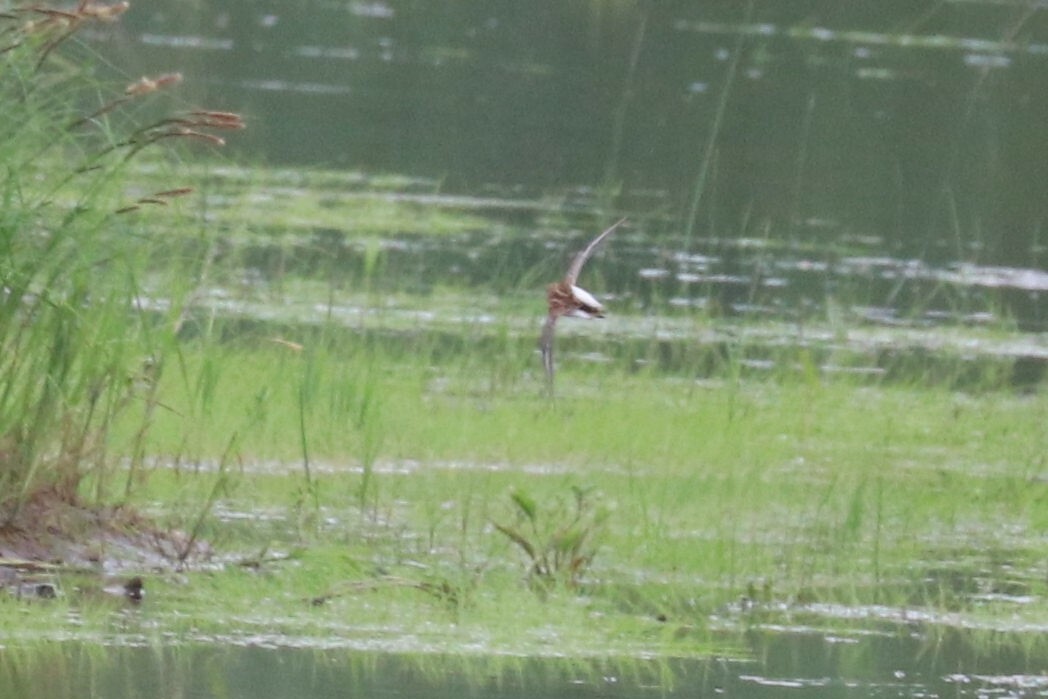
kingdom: Animalia
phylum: Chordata
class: Aves
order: Charadriiformes
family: Scolopacidae
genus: Calidris
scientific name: Calidris minuta
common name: Little stint
